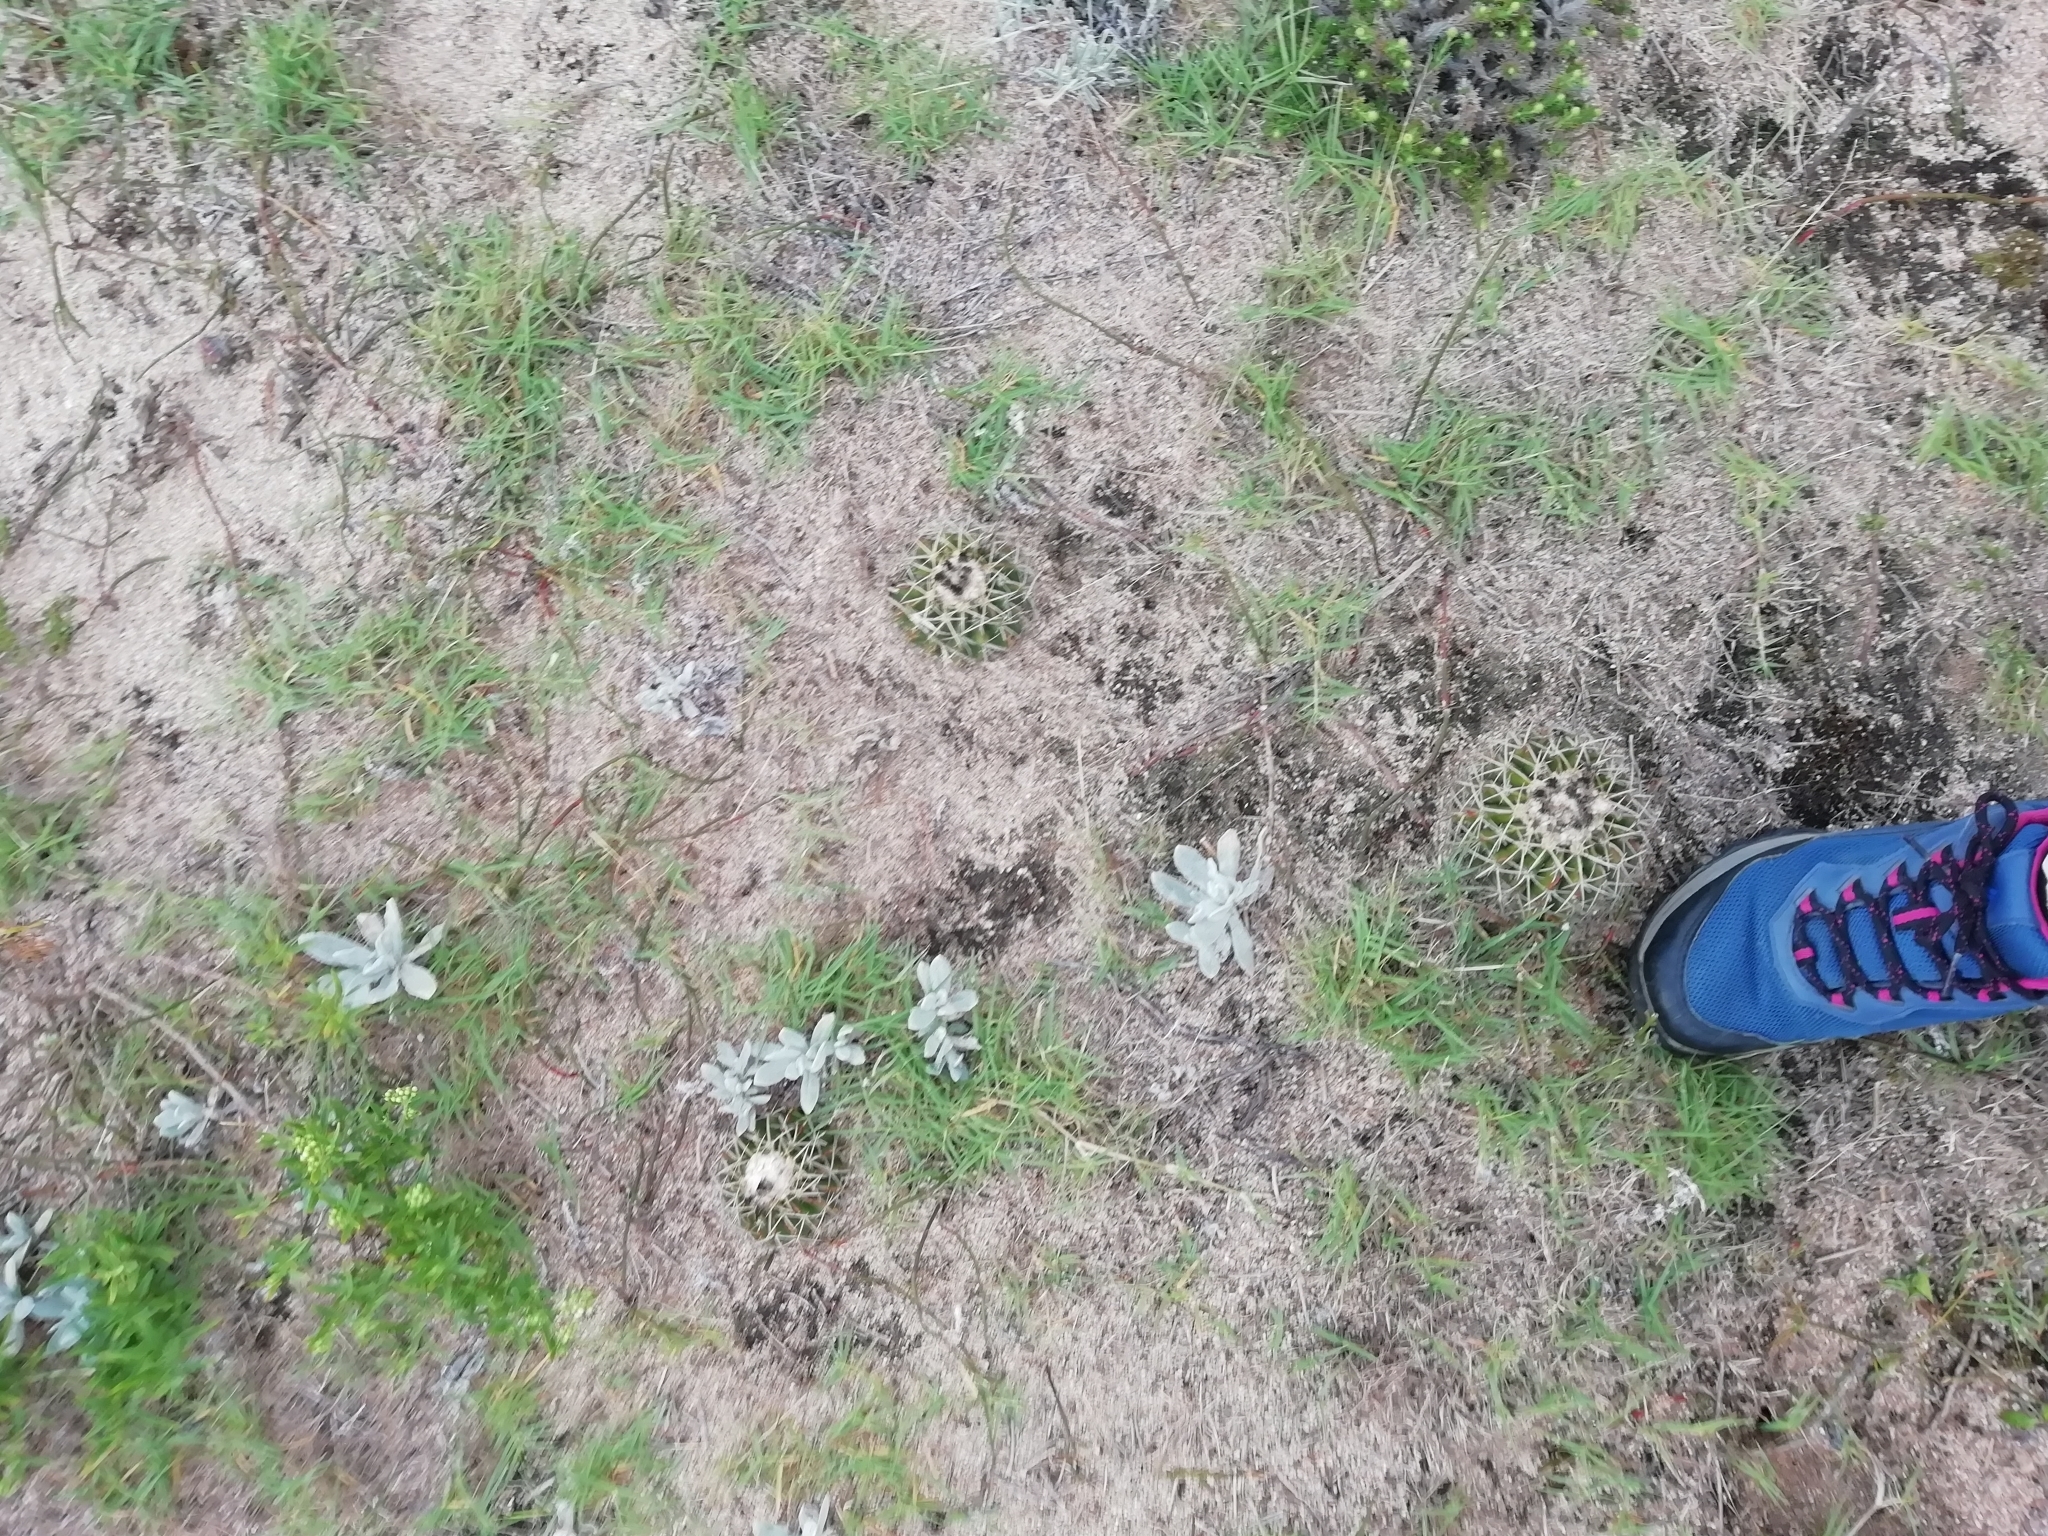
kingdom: Plantae
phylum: Tracheophyta
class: Magnoliopsida
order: Caryophyllales
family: Cactaceae
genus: Parodia
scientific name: Parodia erinacea
